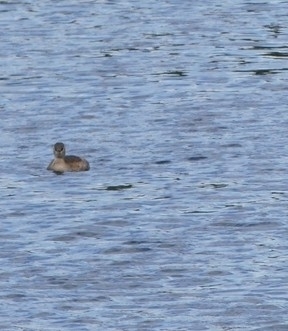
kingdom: Animalia
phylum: Chordata
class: Aves
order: Podicipediformes
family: Podicipedidae
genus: Tachybaptus
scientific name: Tachybaptus ruficollis
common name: Little grebe
